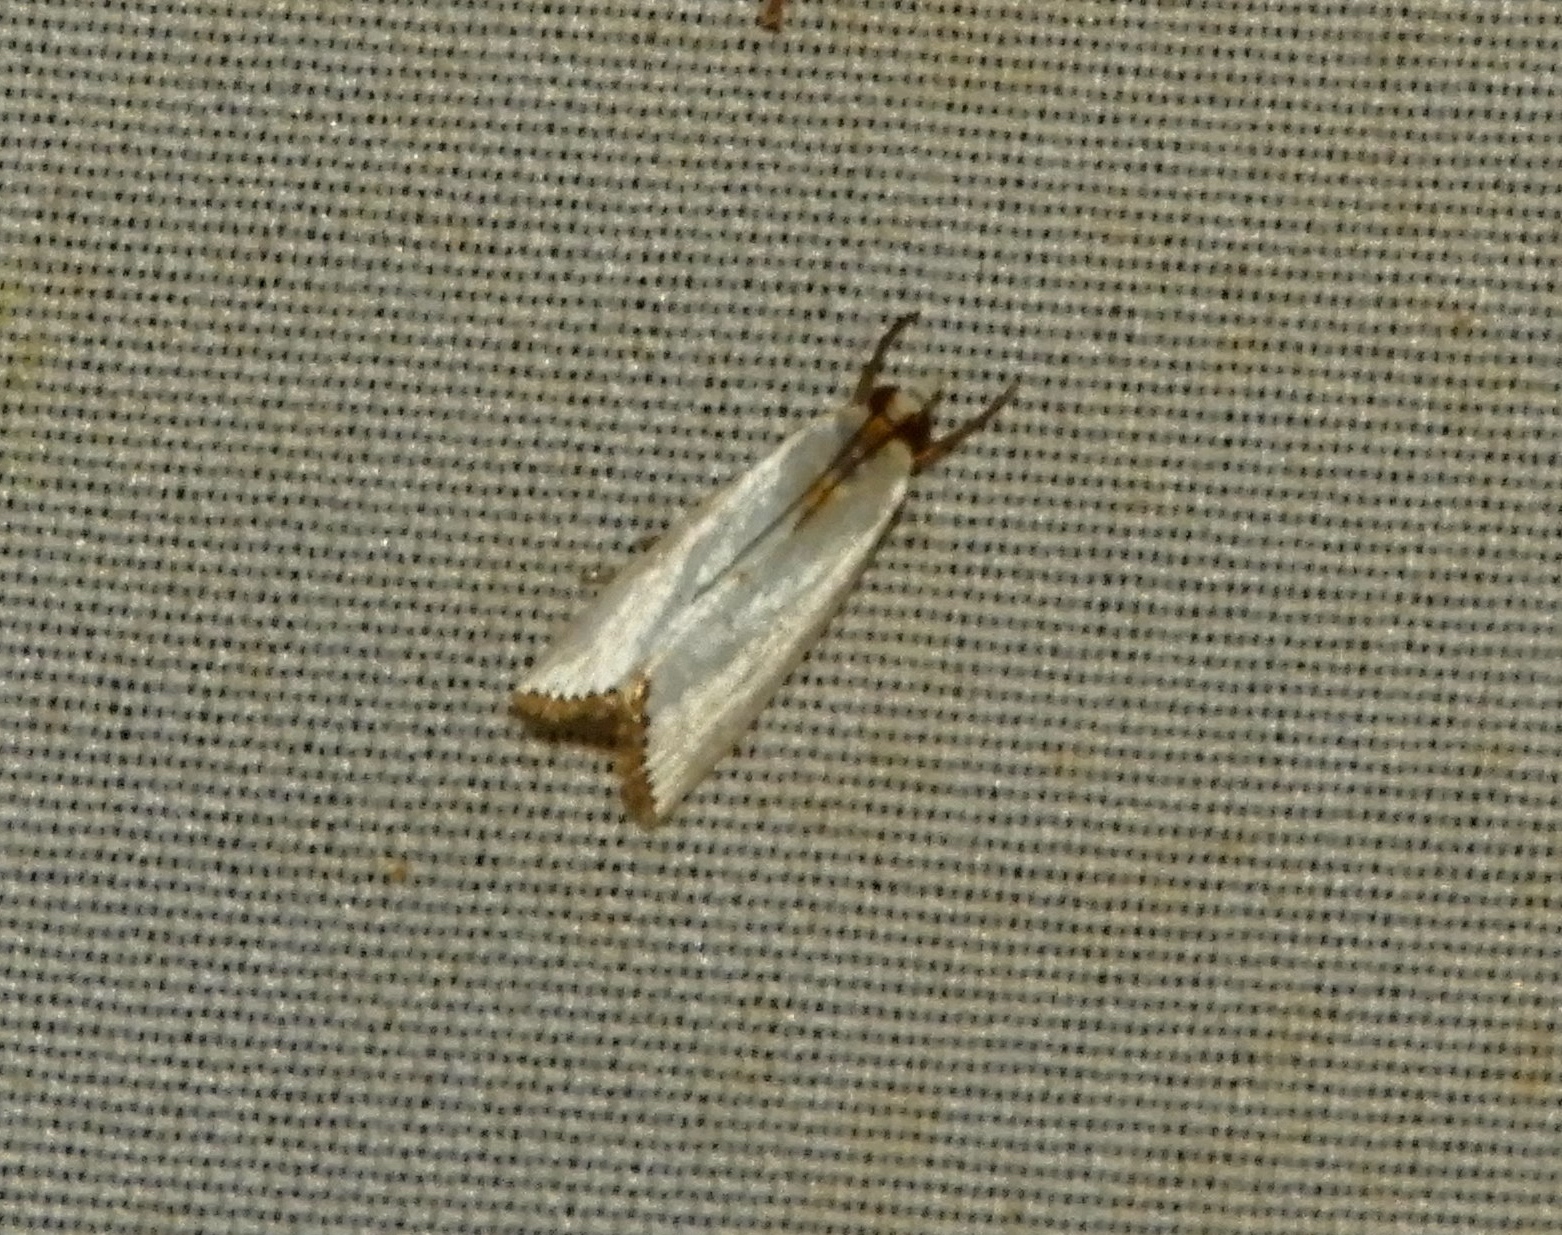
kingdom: Animalia
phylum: Arthropoda
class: Insecta
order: Lepidoptera
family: Crambidae
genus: Argyria
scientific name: Argyria
